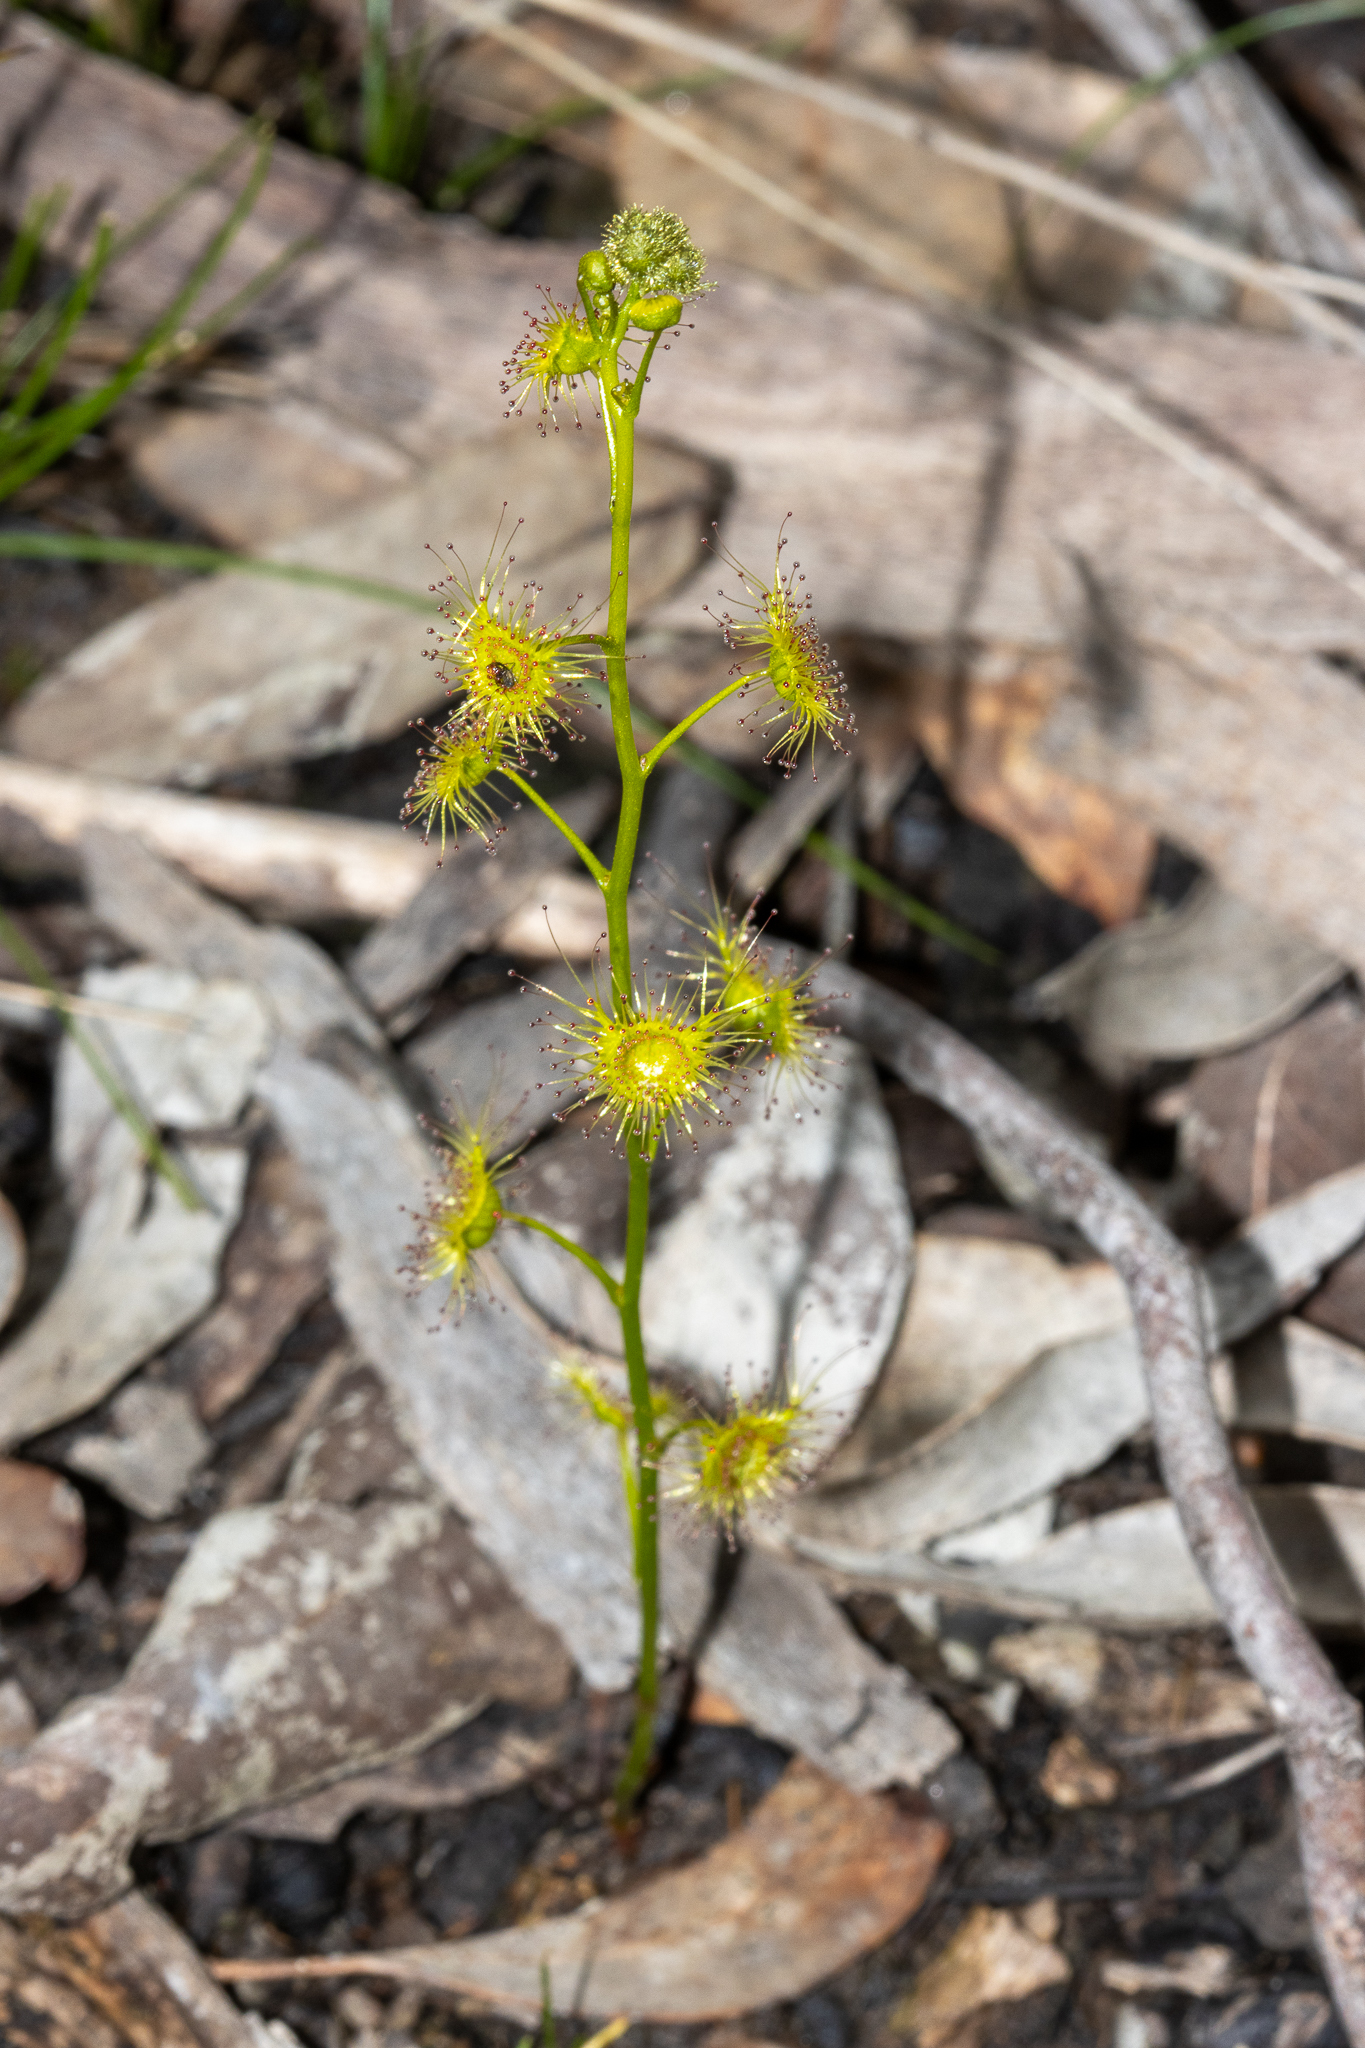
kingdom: Plantae
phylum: Tracheophyta
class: Magnoliopsida
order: Caryophyllales
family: Droseraceae
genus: Drosera
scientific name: Drosera gunniana
